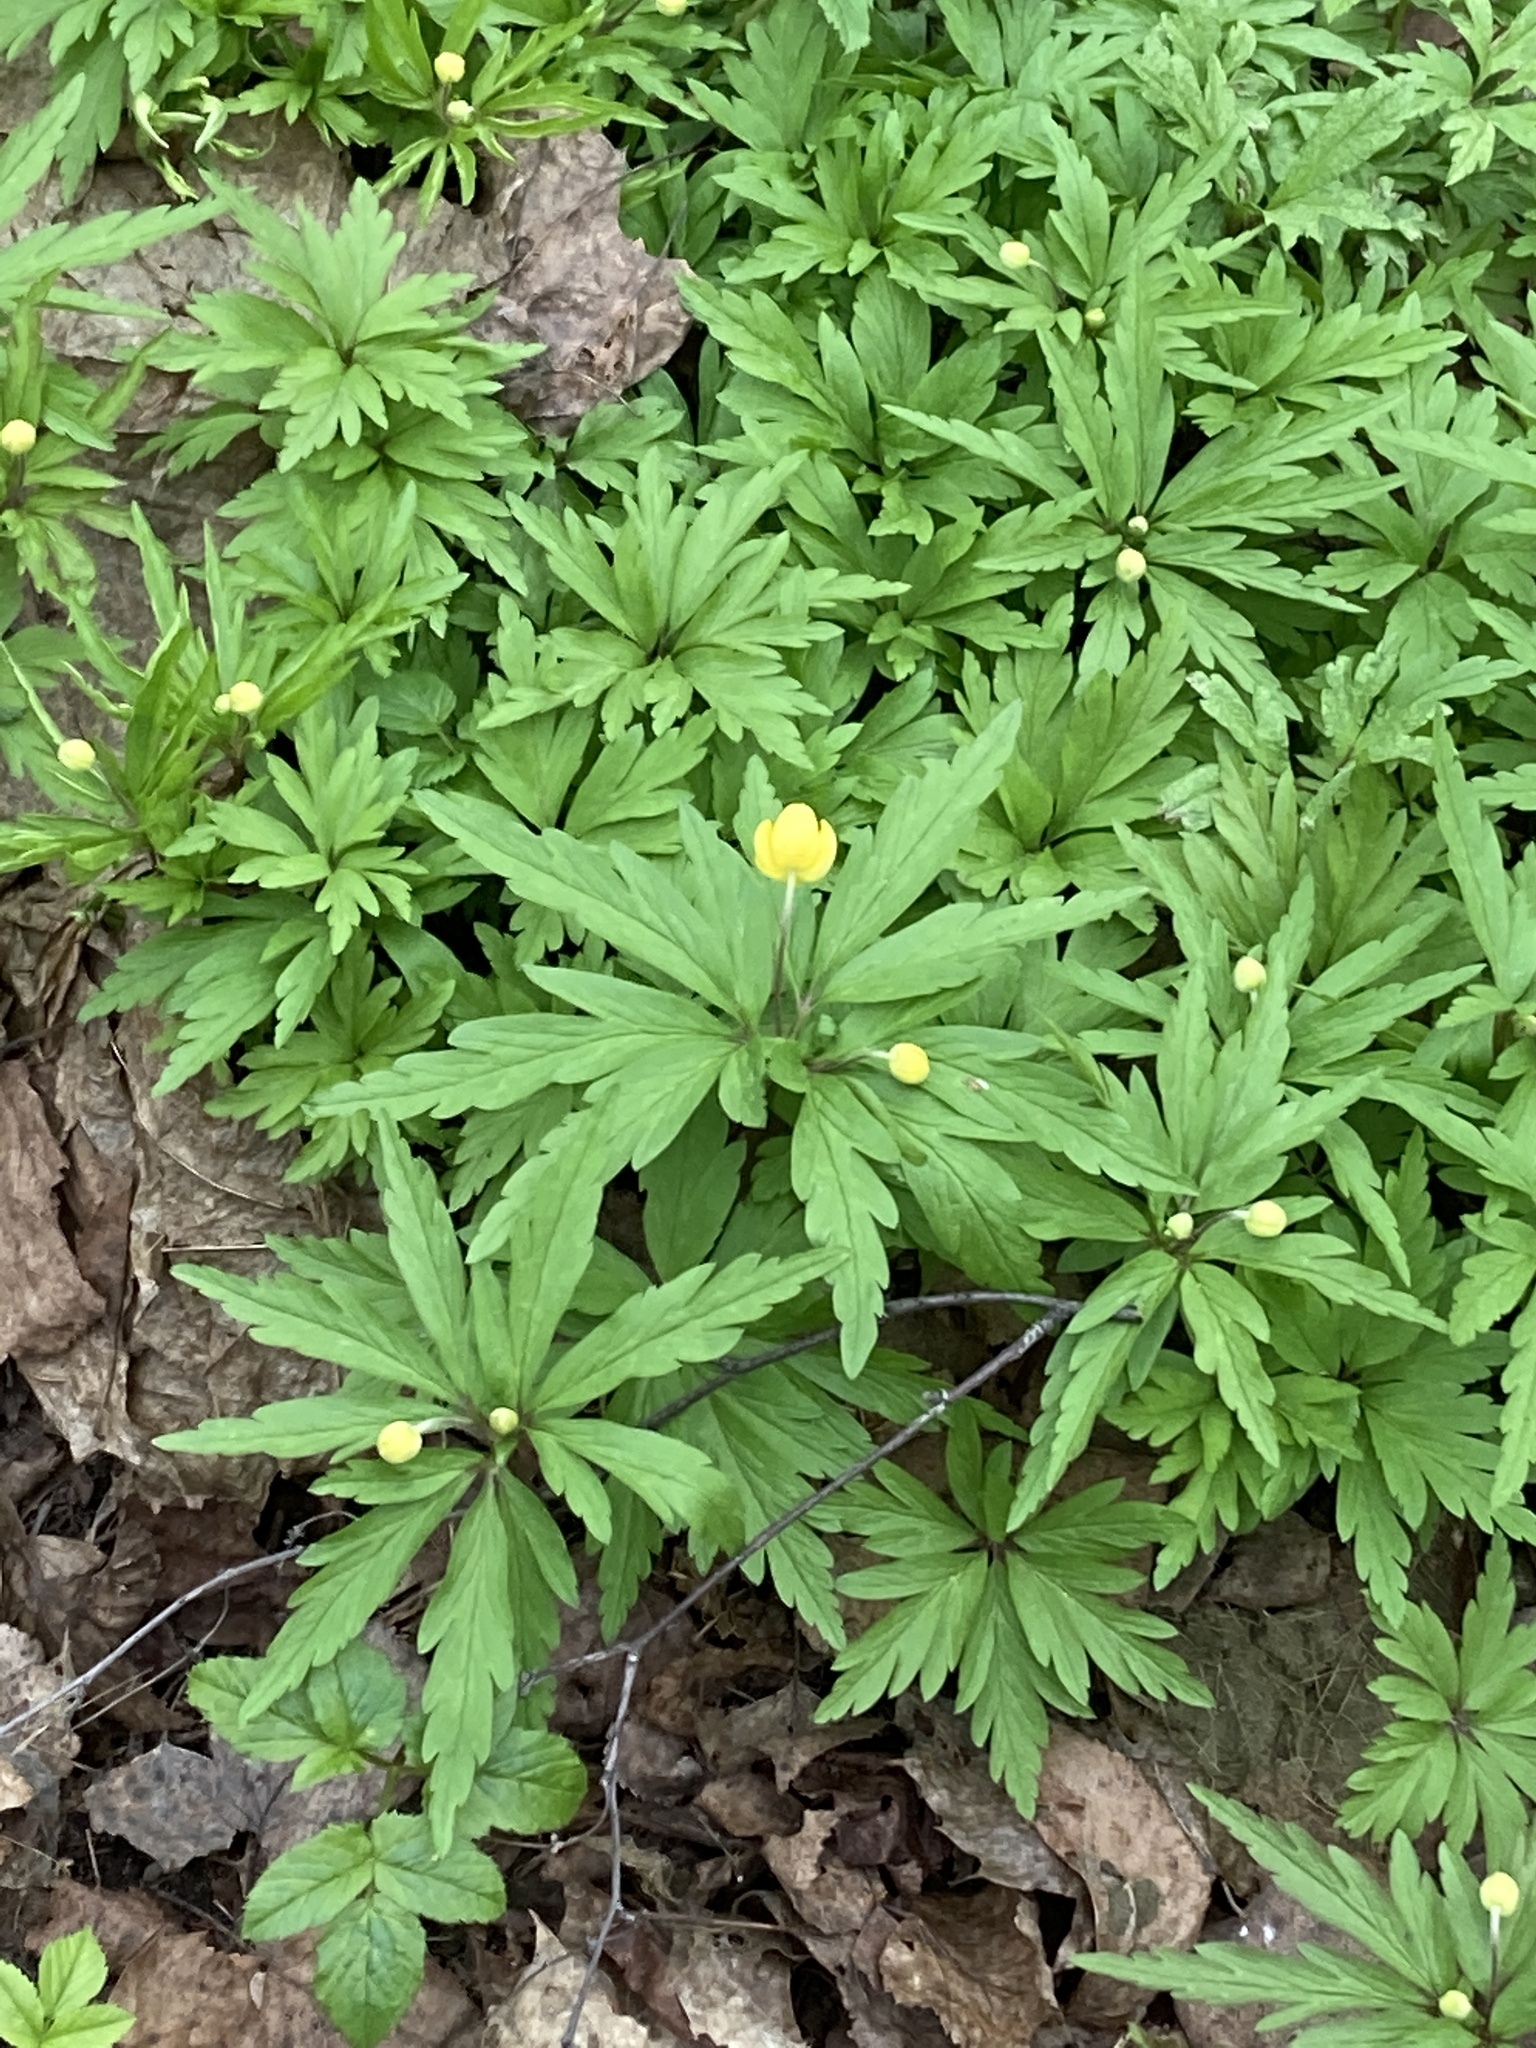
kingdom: Plantae
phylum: Tracheophyta
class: Magnoliopsida
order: Ranunculales
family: Ranunculaceae
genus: Anemone
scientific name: Anemone ranunculoides
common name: Yellow anemone
